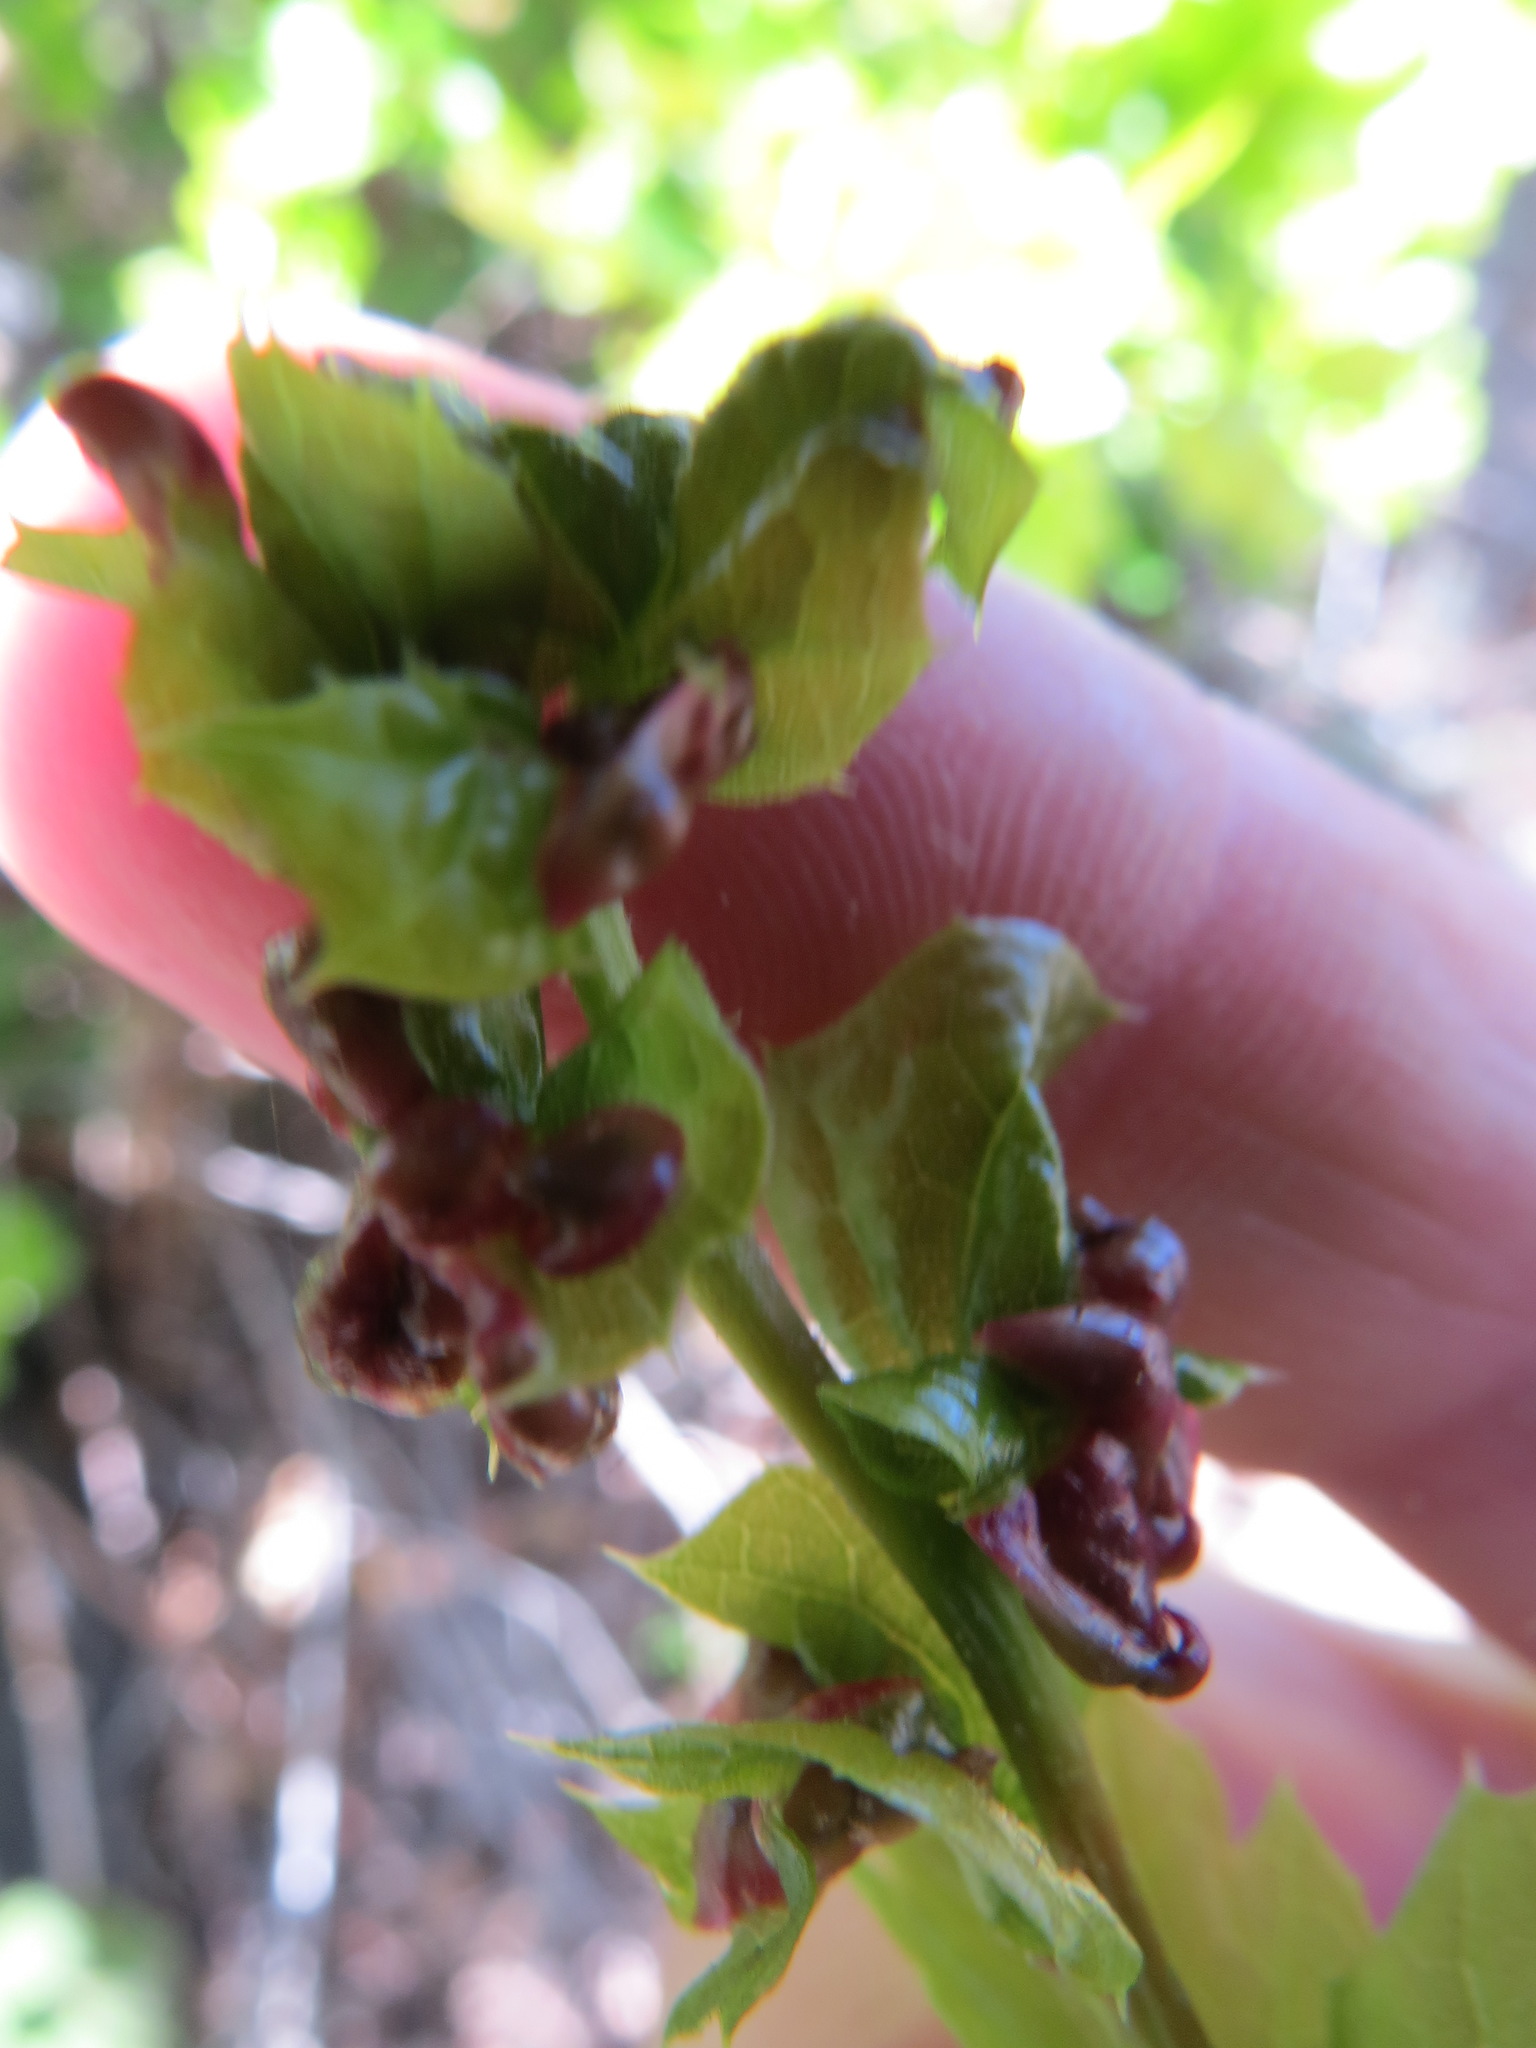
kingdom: Animalia
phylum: Arthropoda
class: Insecta
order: Hymenoptera
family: Cynipidae
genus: Dryocosmus
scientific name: Dryocosmus
